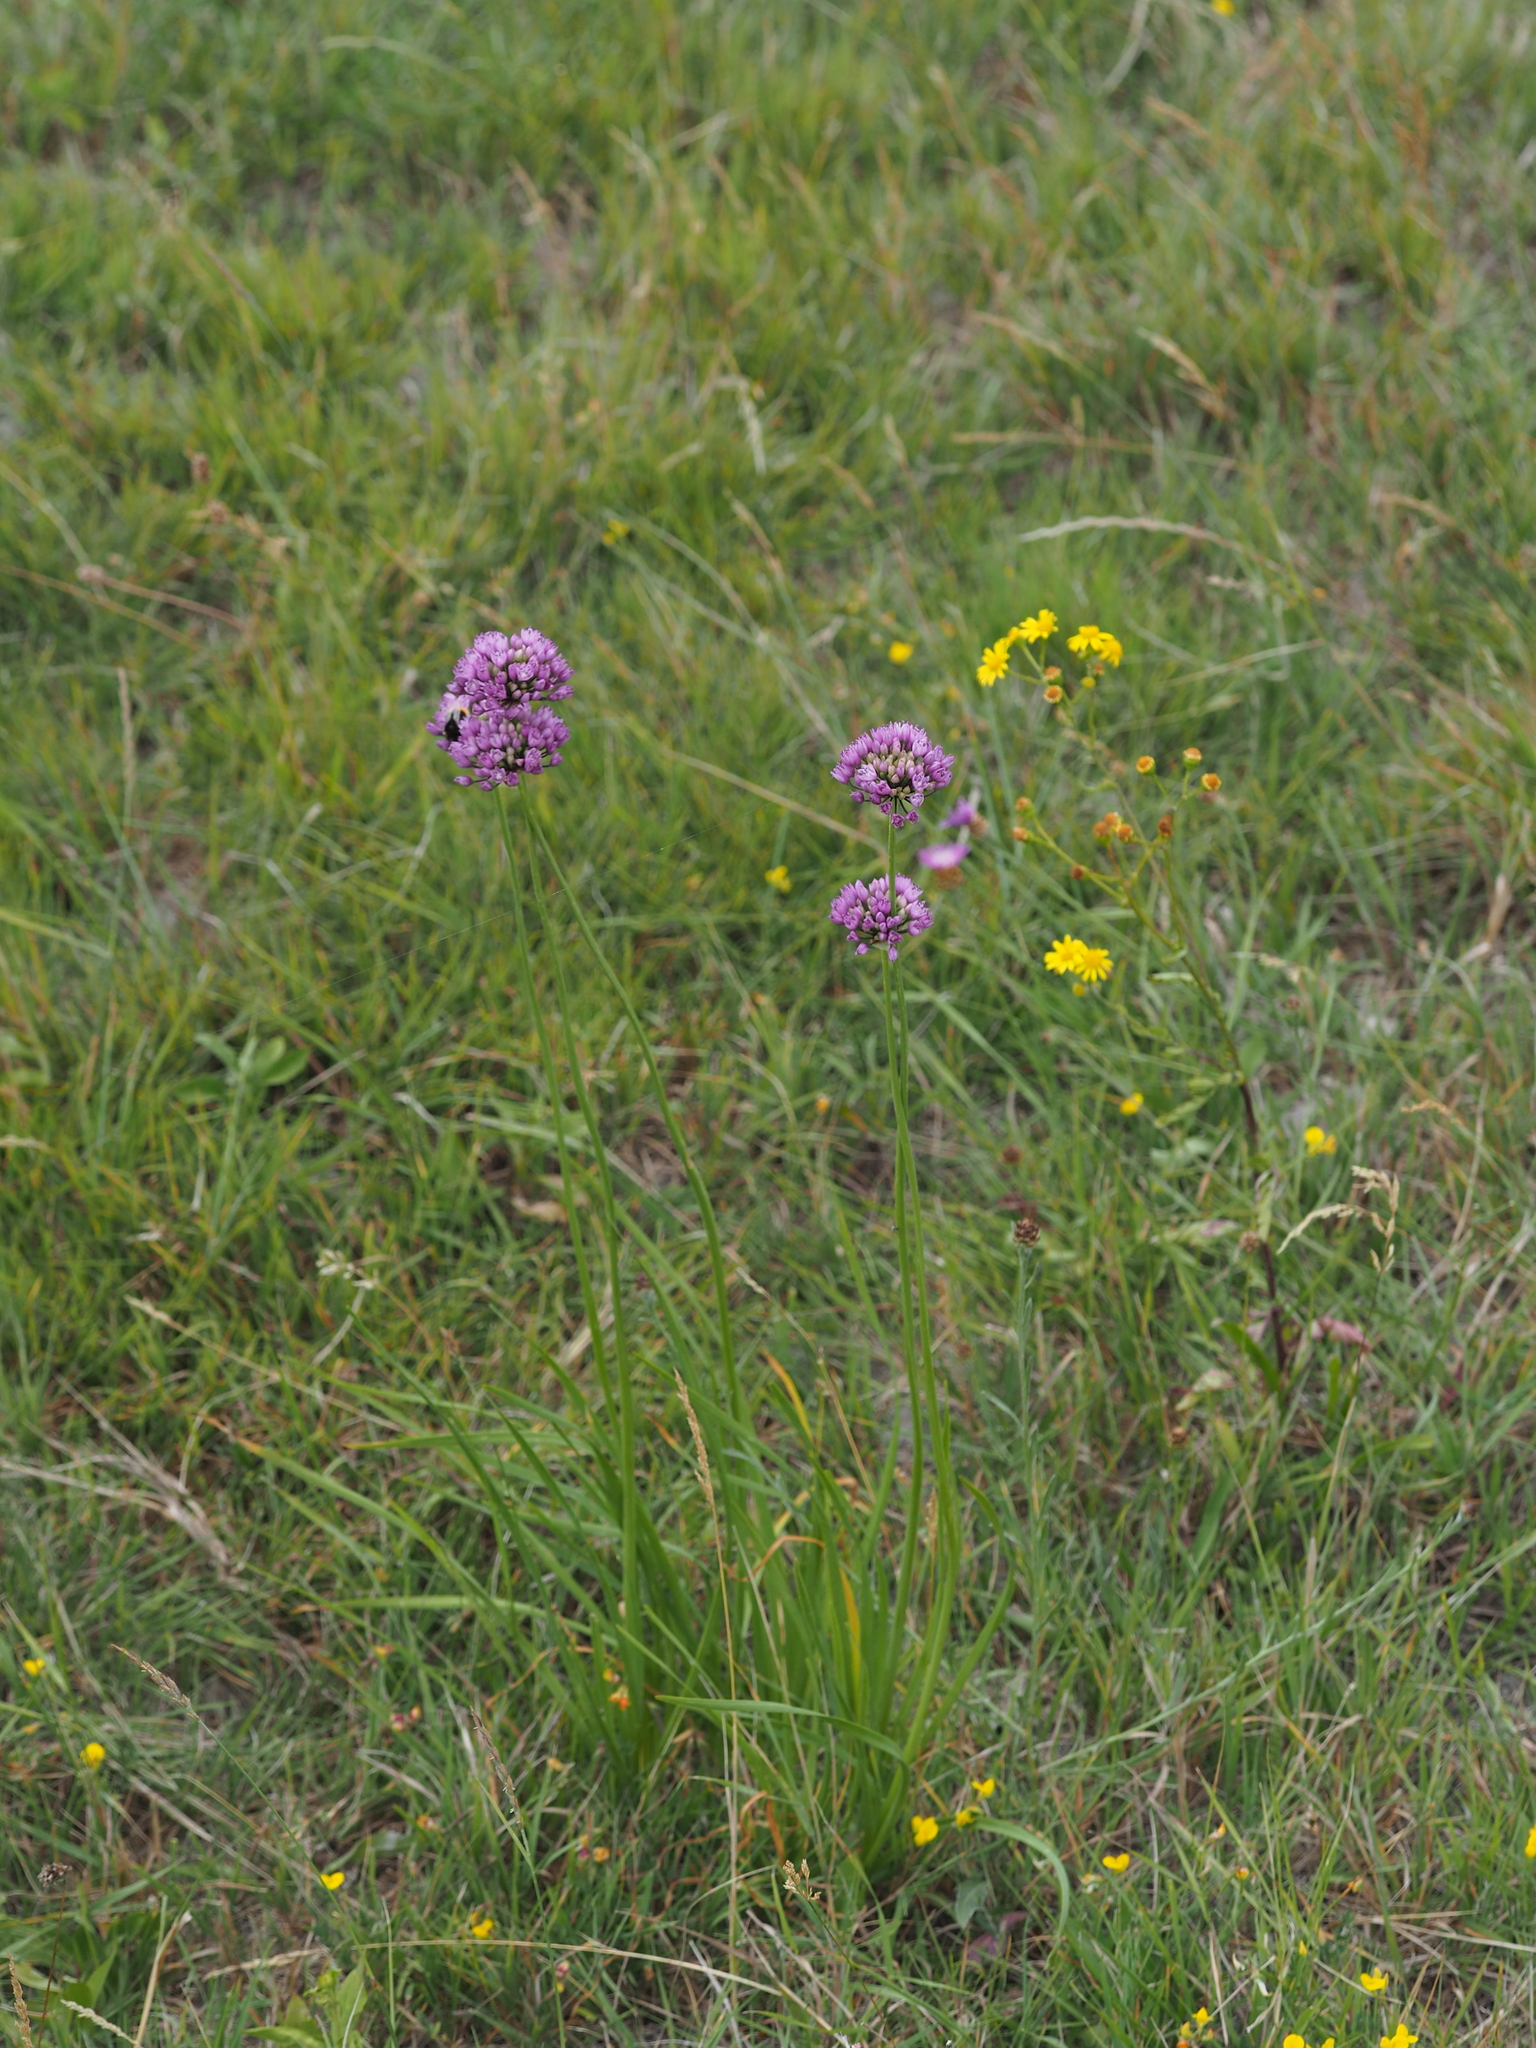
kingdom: Plantae
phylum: Tracheophyta
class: Liliopsida
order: Asparagales
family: Amaryllidaceae
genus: Allium
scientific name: Allium lusitanicum
